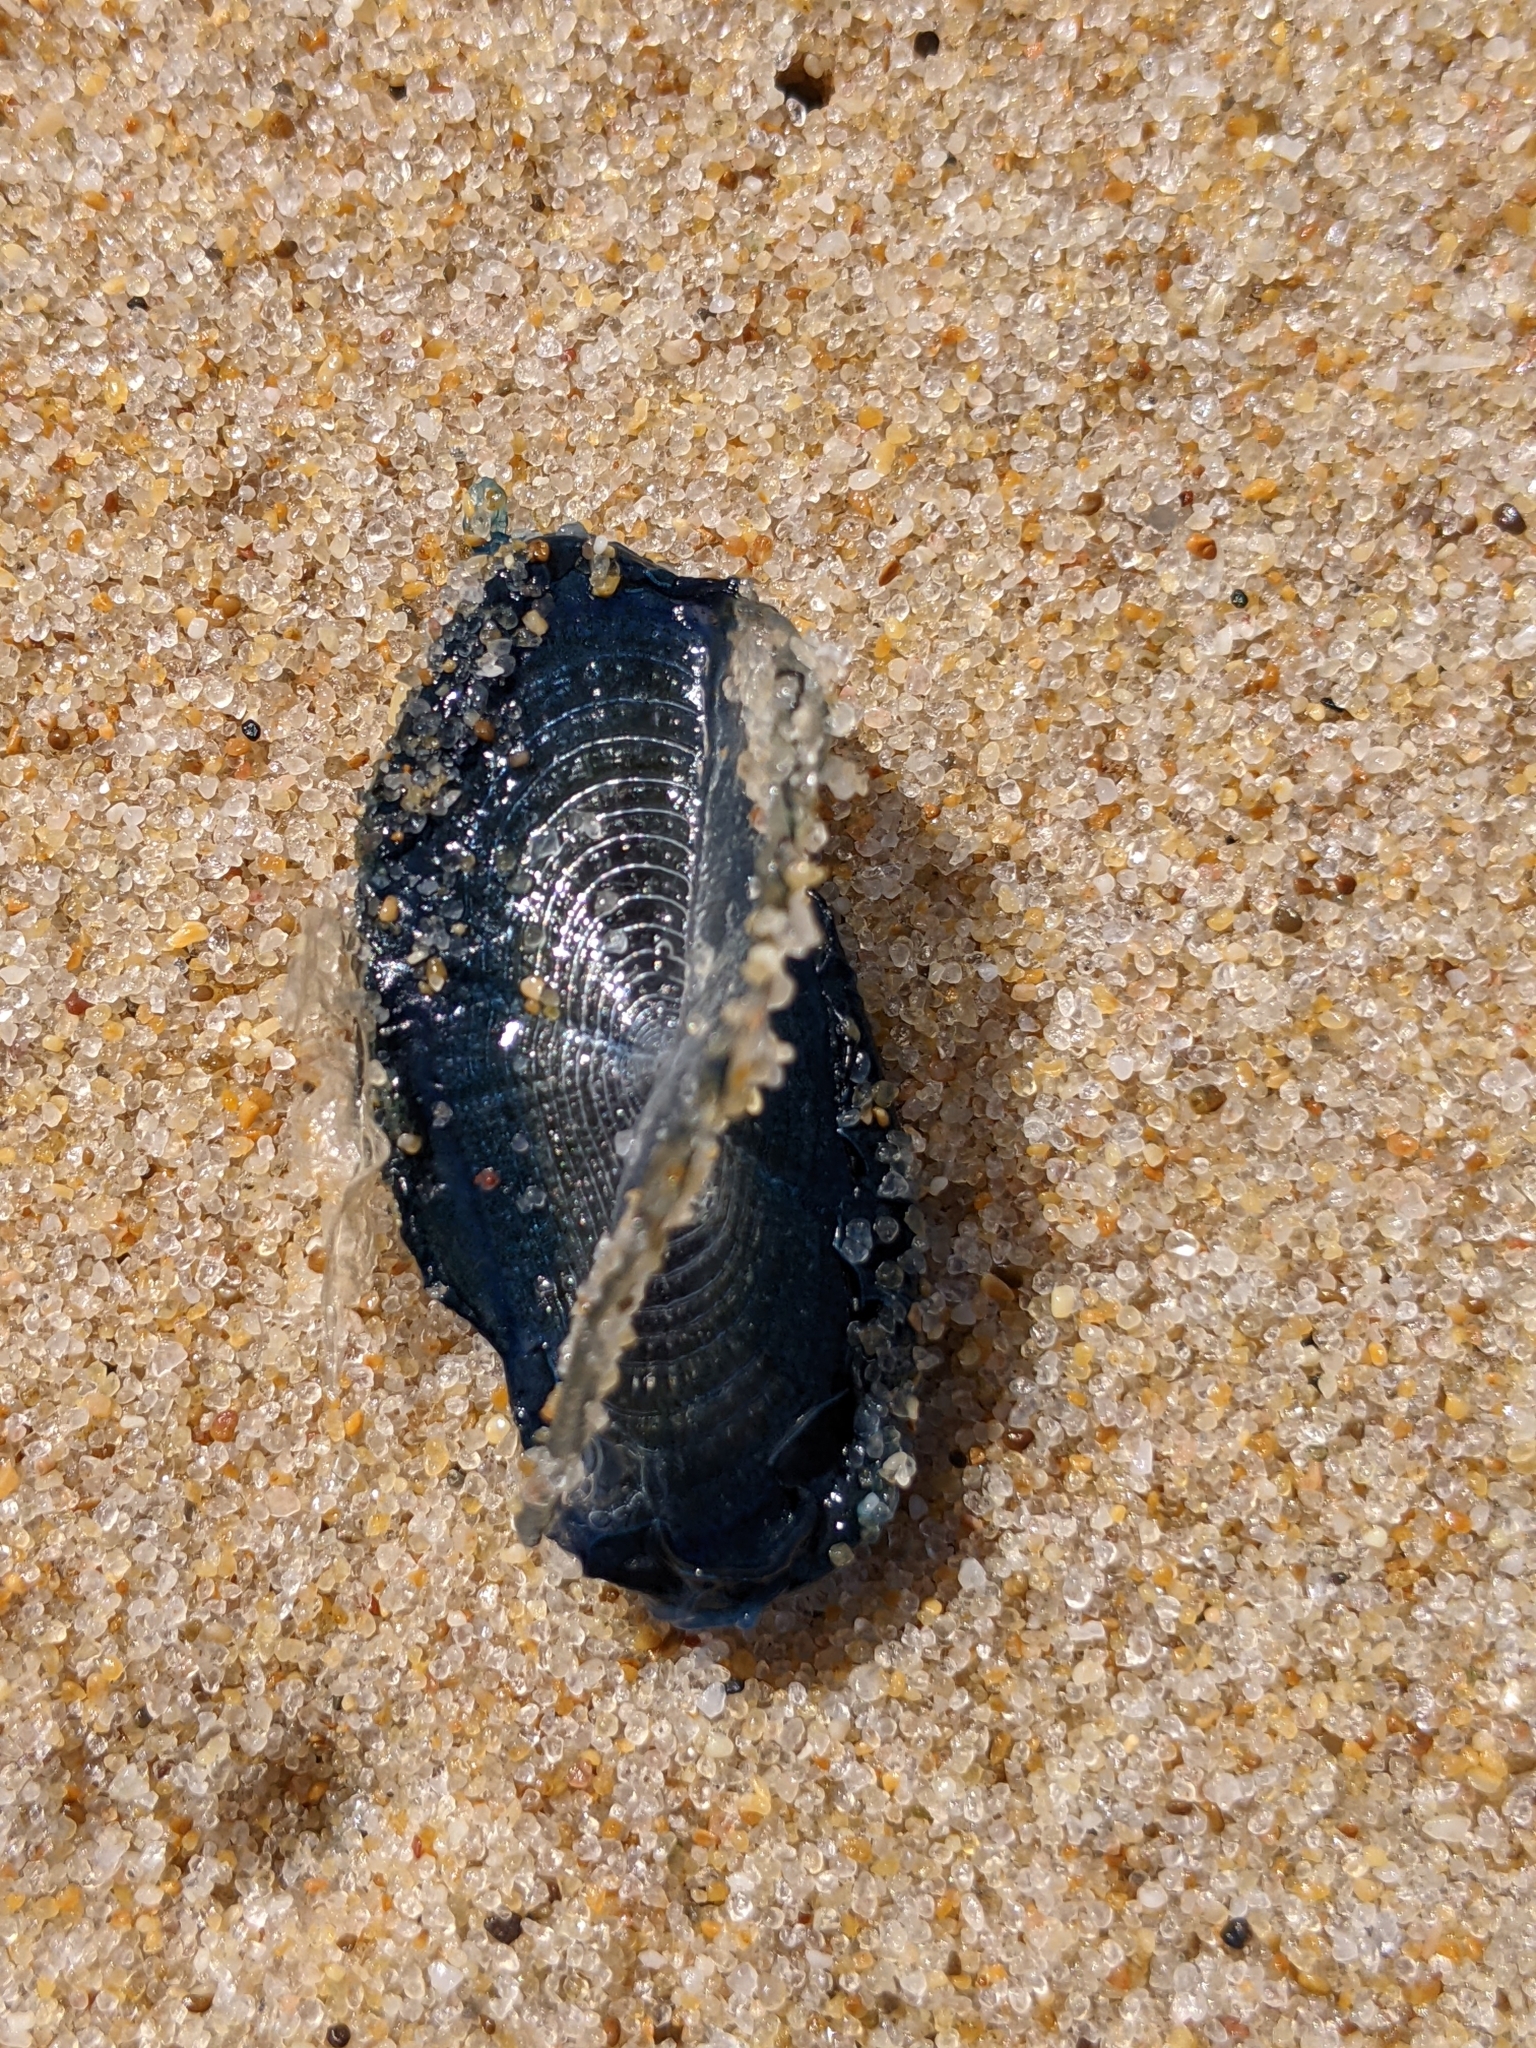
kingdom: Animalia
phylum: Cnidaria
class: Hydrozoa
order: Anthoathecata
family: Porpitidae
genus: Velella
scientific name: Velella velella
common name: By-the-wind-sailor
